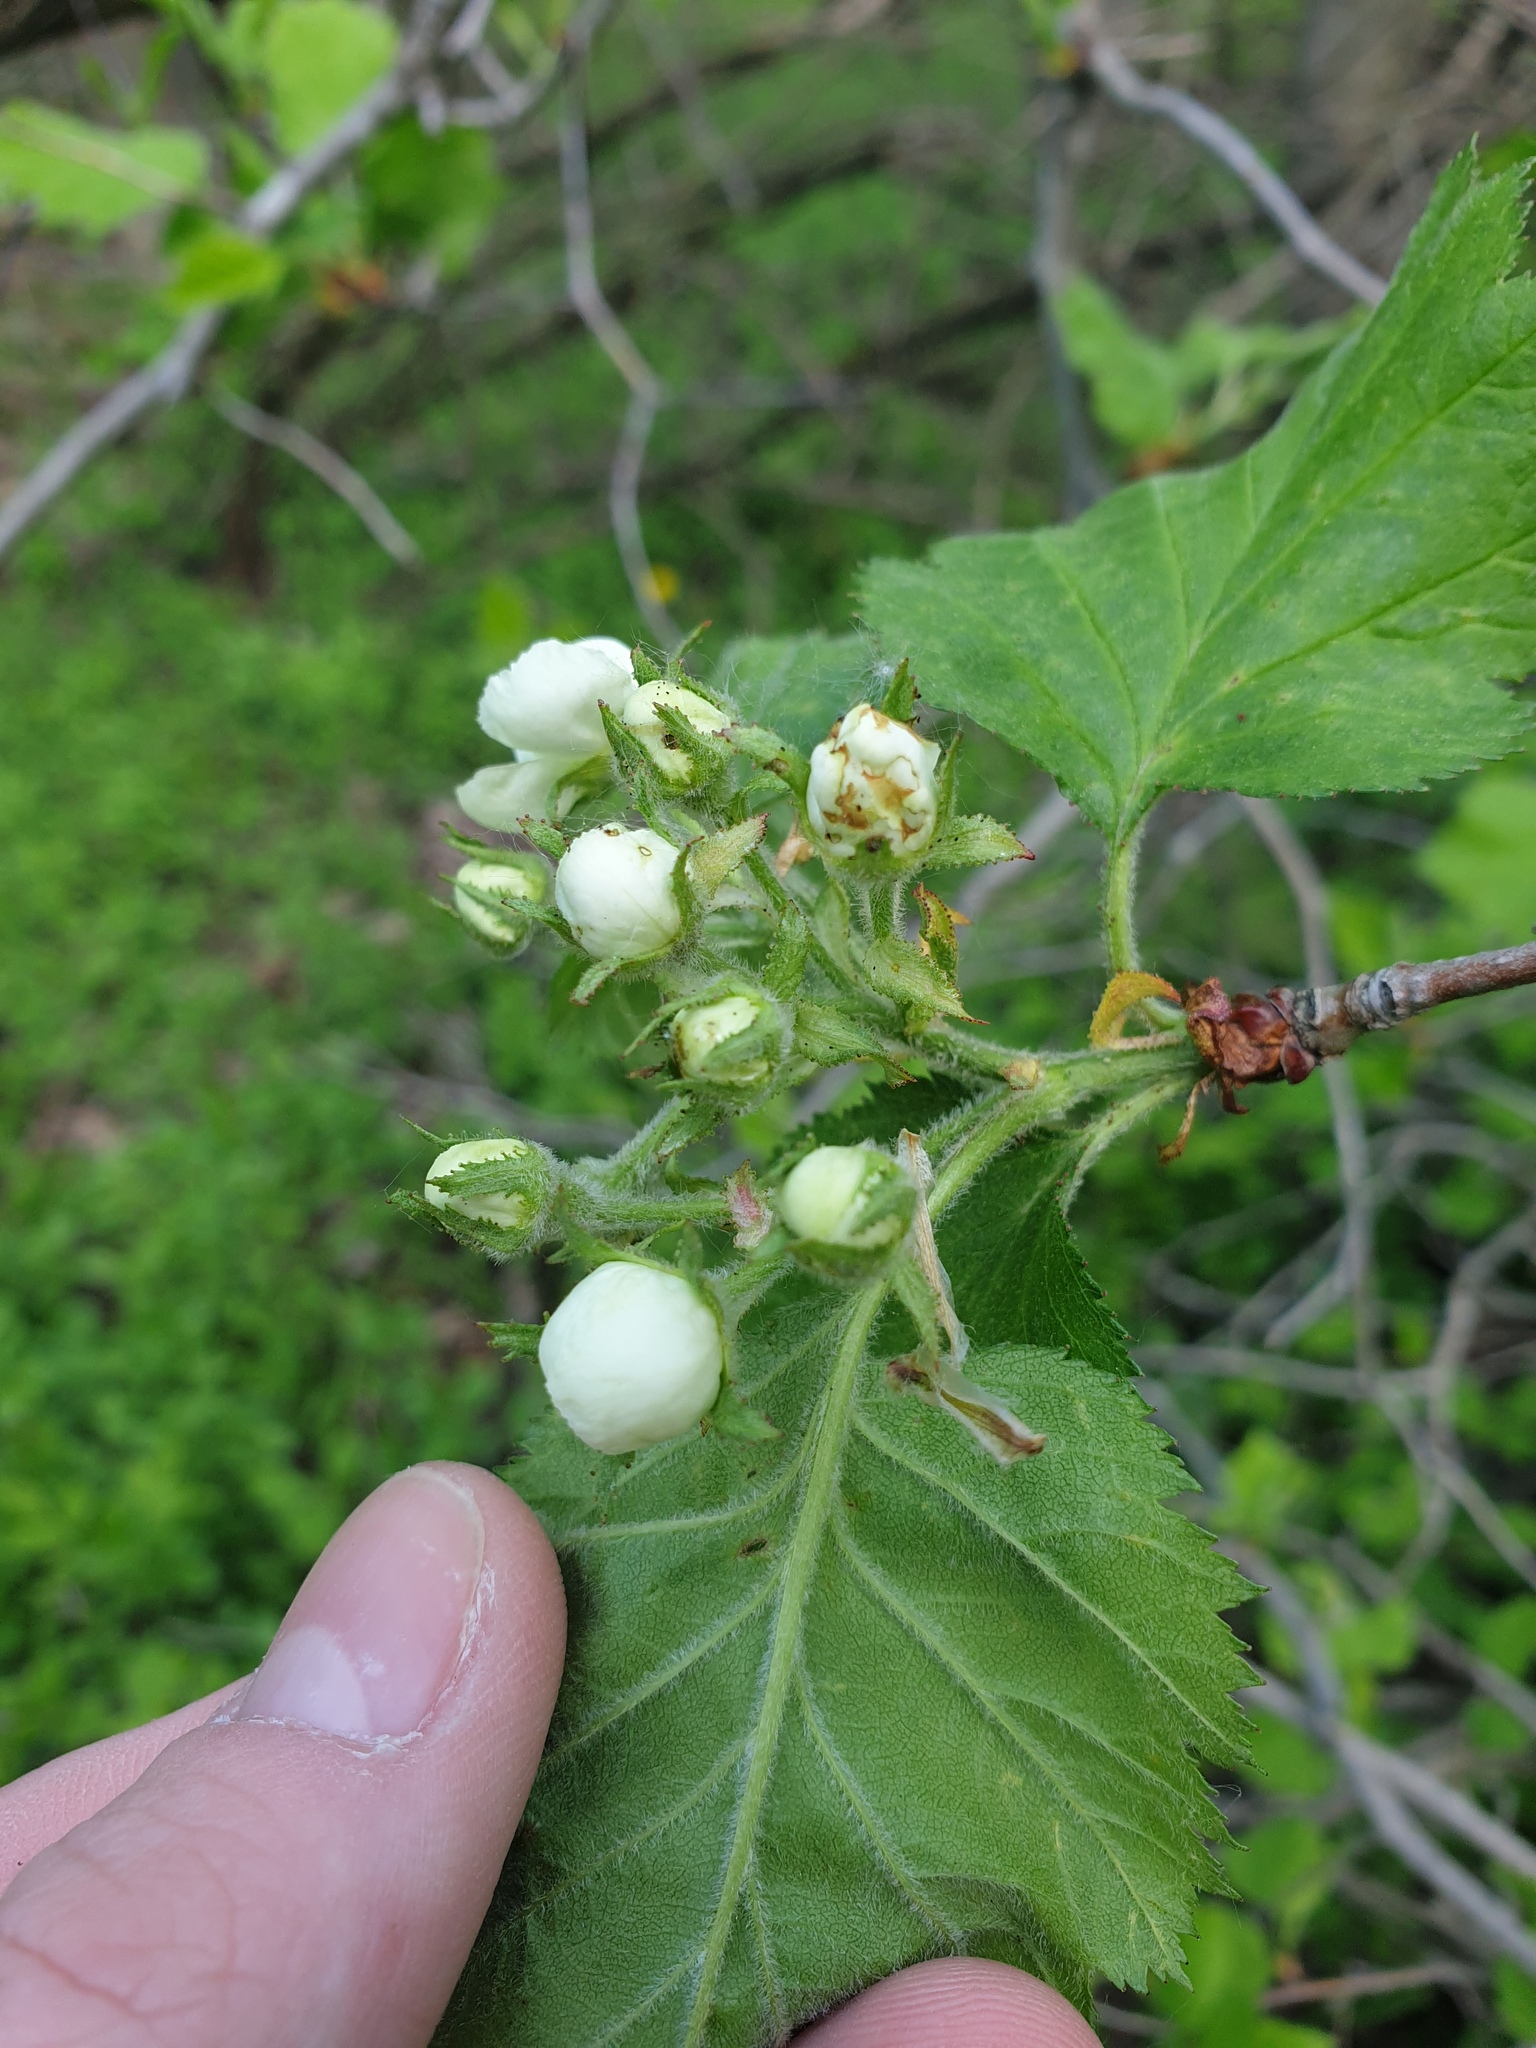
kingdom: Plantae
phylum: Tracheophyta
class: Magnoliopsida
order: Rosales
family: Rosaceae
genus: Crataegus
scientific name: Crataegus submollis
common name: Hairy cockspurthorn
